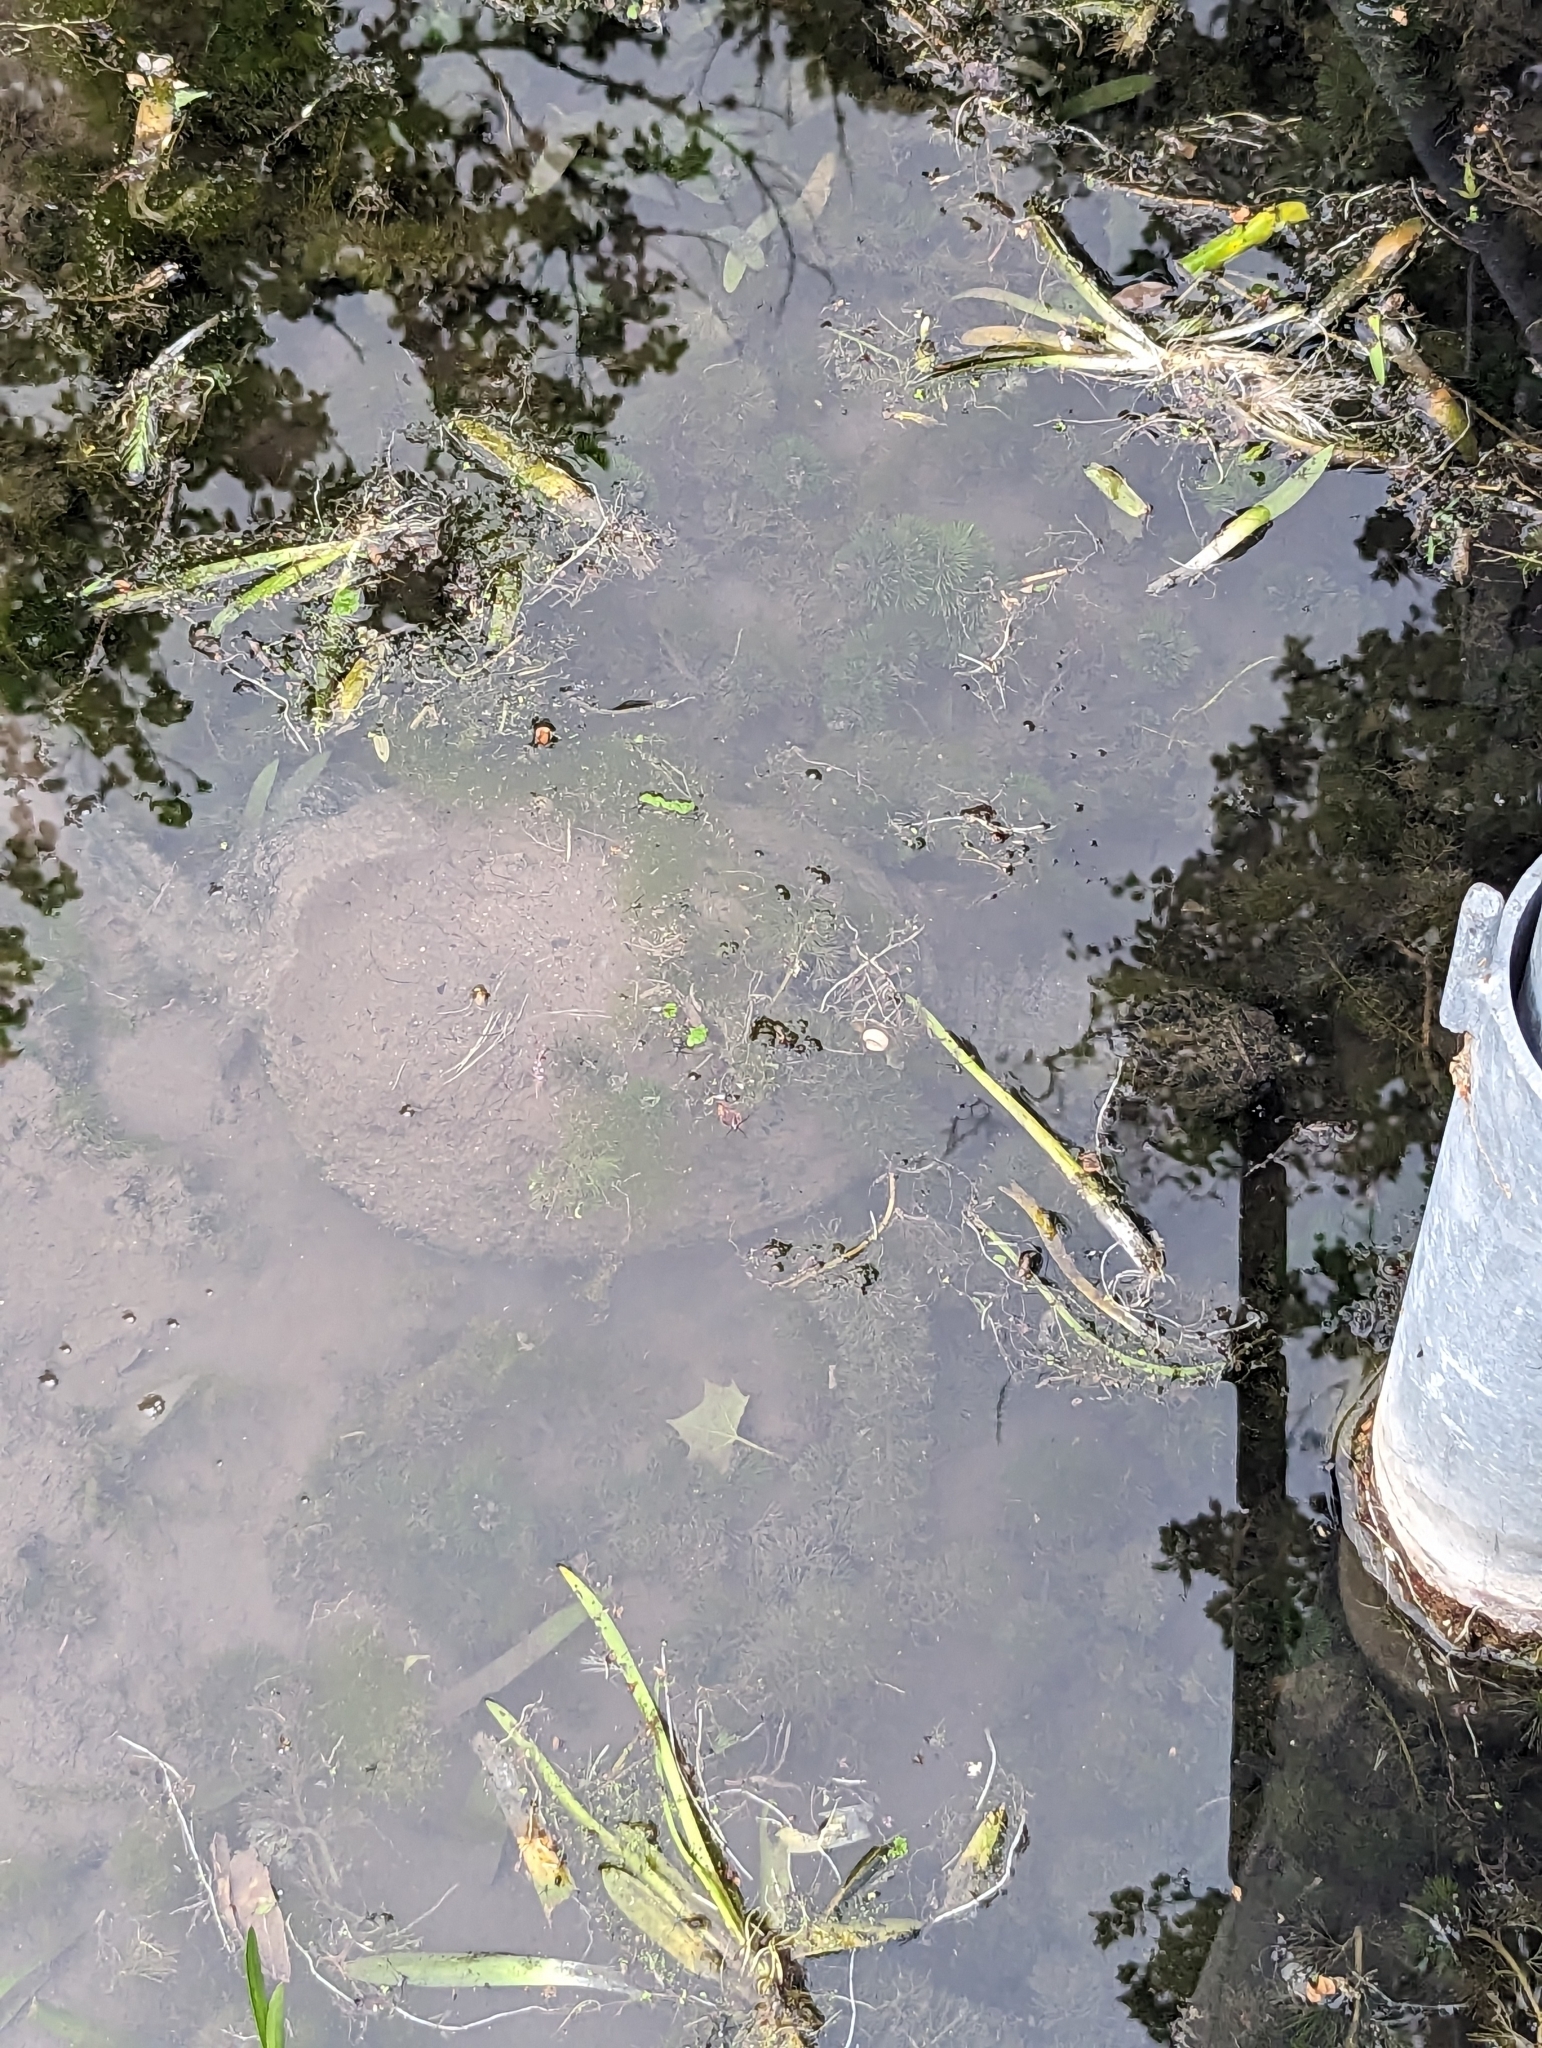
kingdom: Animalia
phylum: Chordata
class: Testudines
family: Chelydridae
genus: Chelydra
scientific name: Chelydra serpentina
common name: Common snapping turtle
